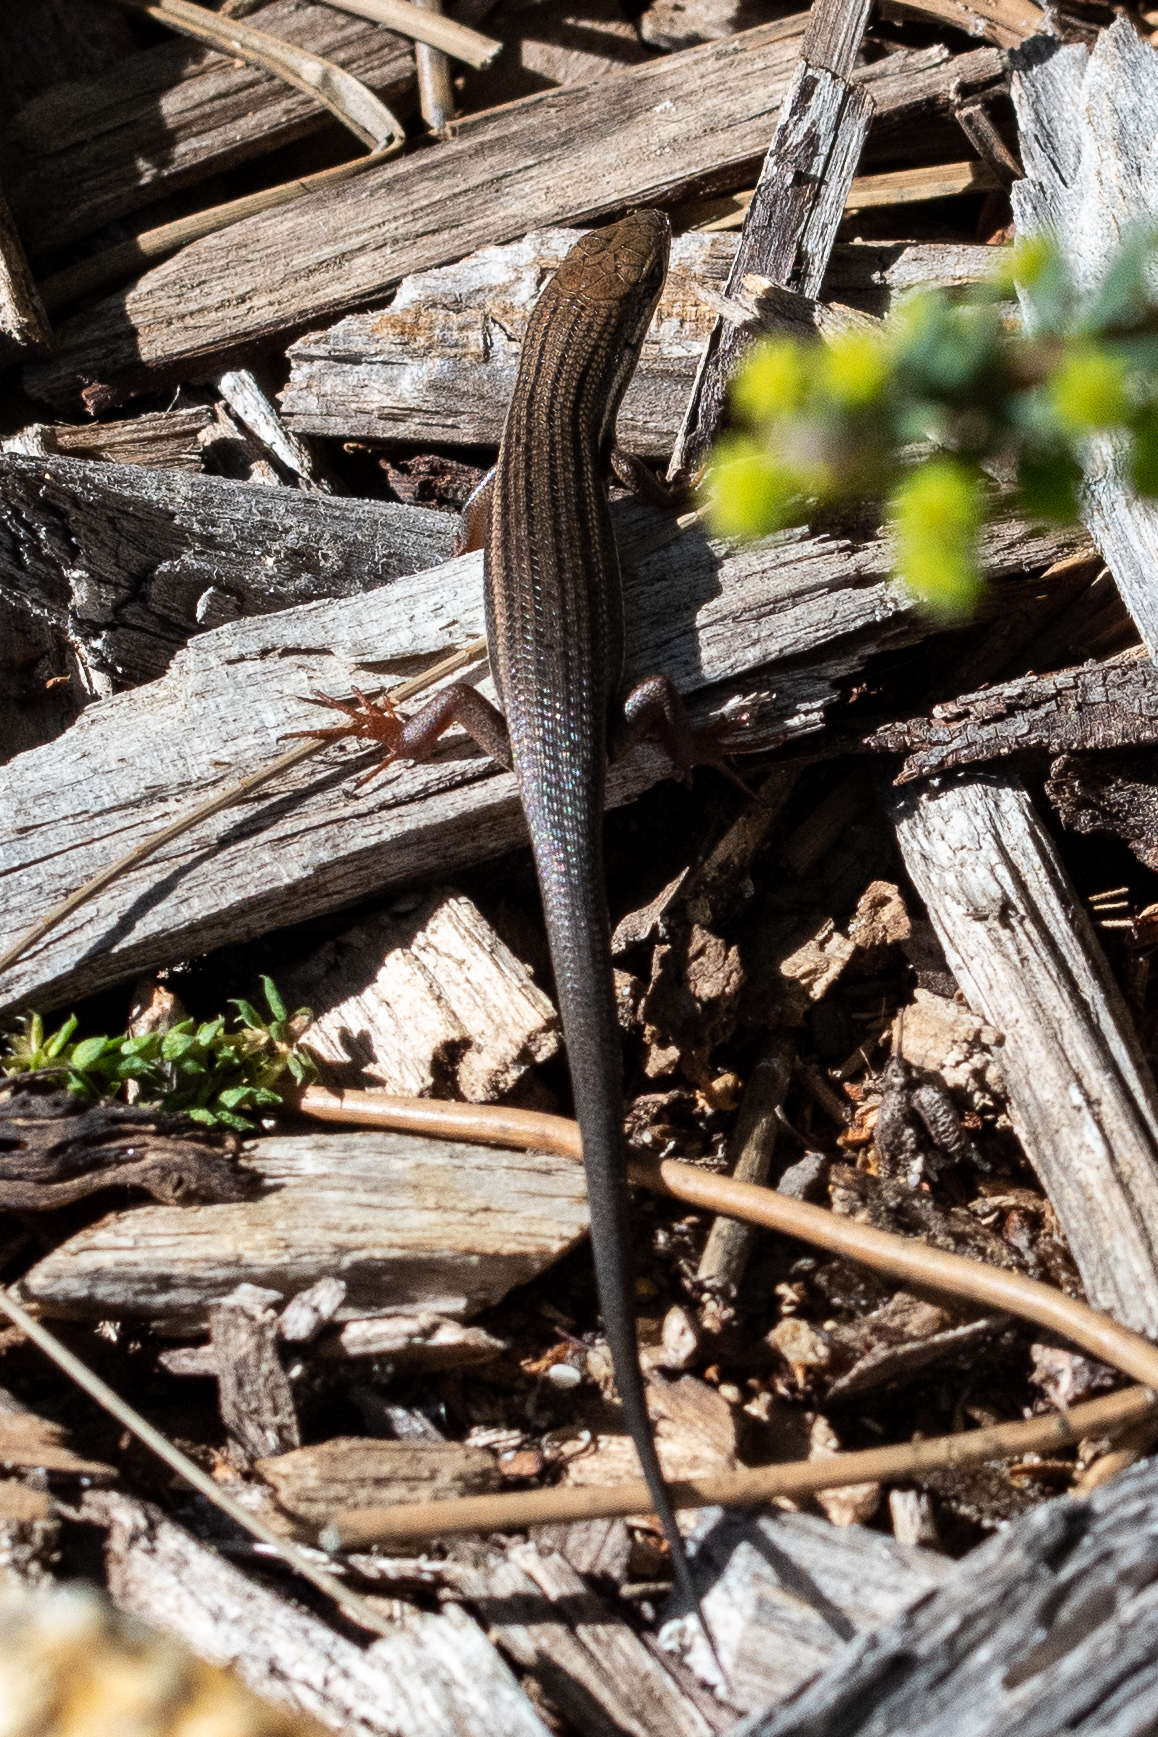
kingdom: Animalia
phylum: Chordata
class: Squamata
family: Scincidae
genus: Trachylepis
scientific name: Trachylepis homalocephala
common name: Red-sided skink
